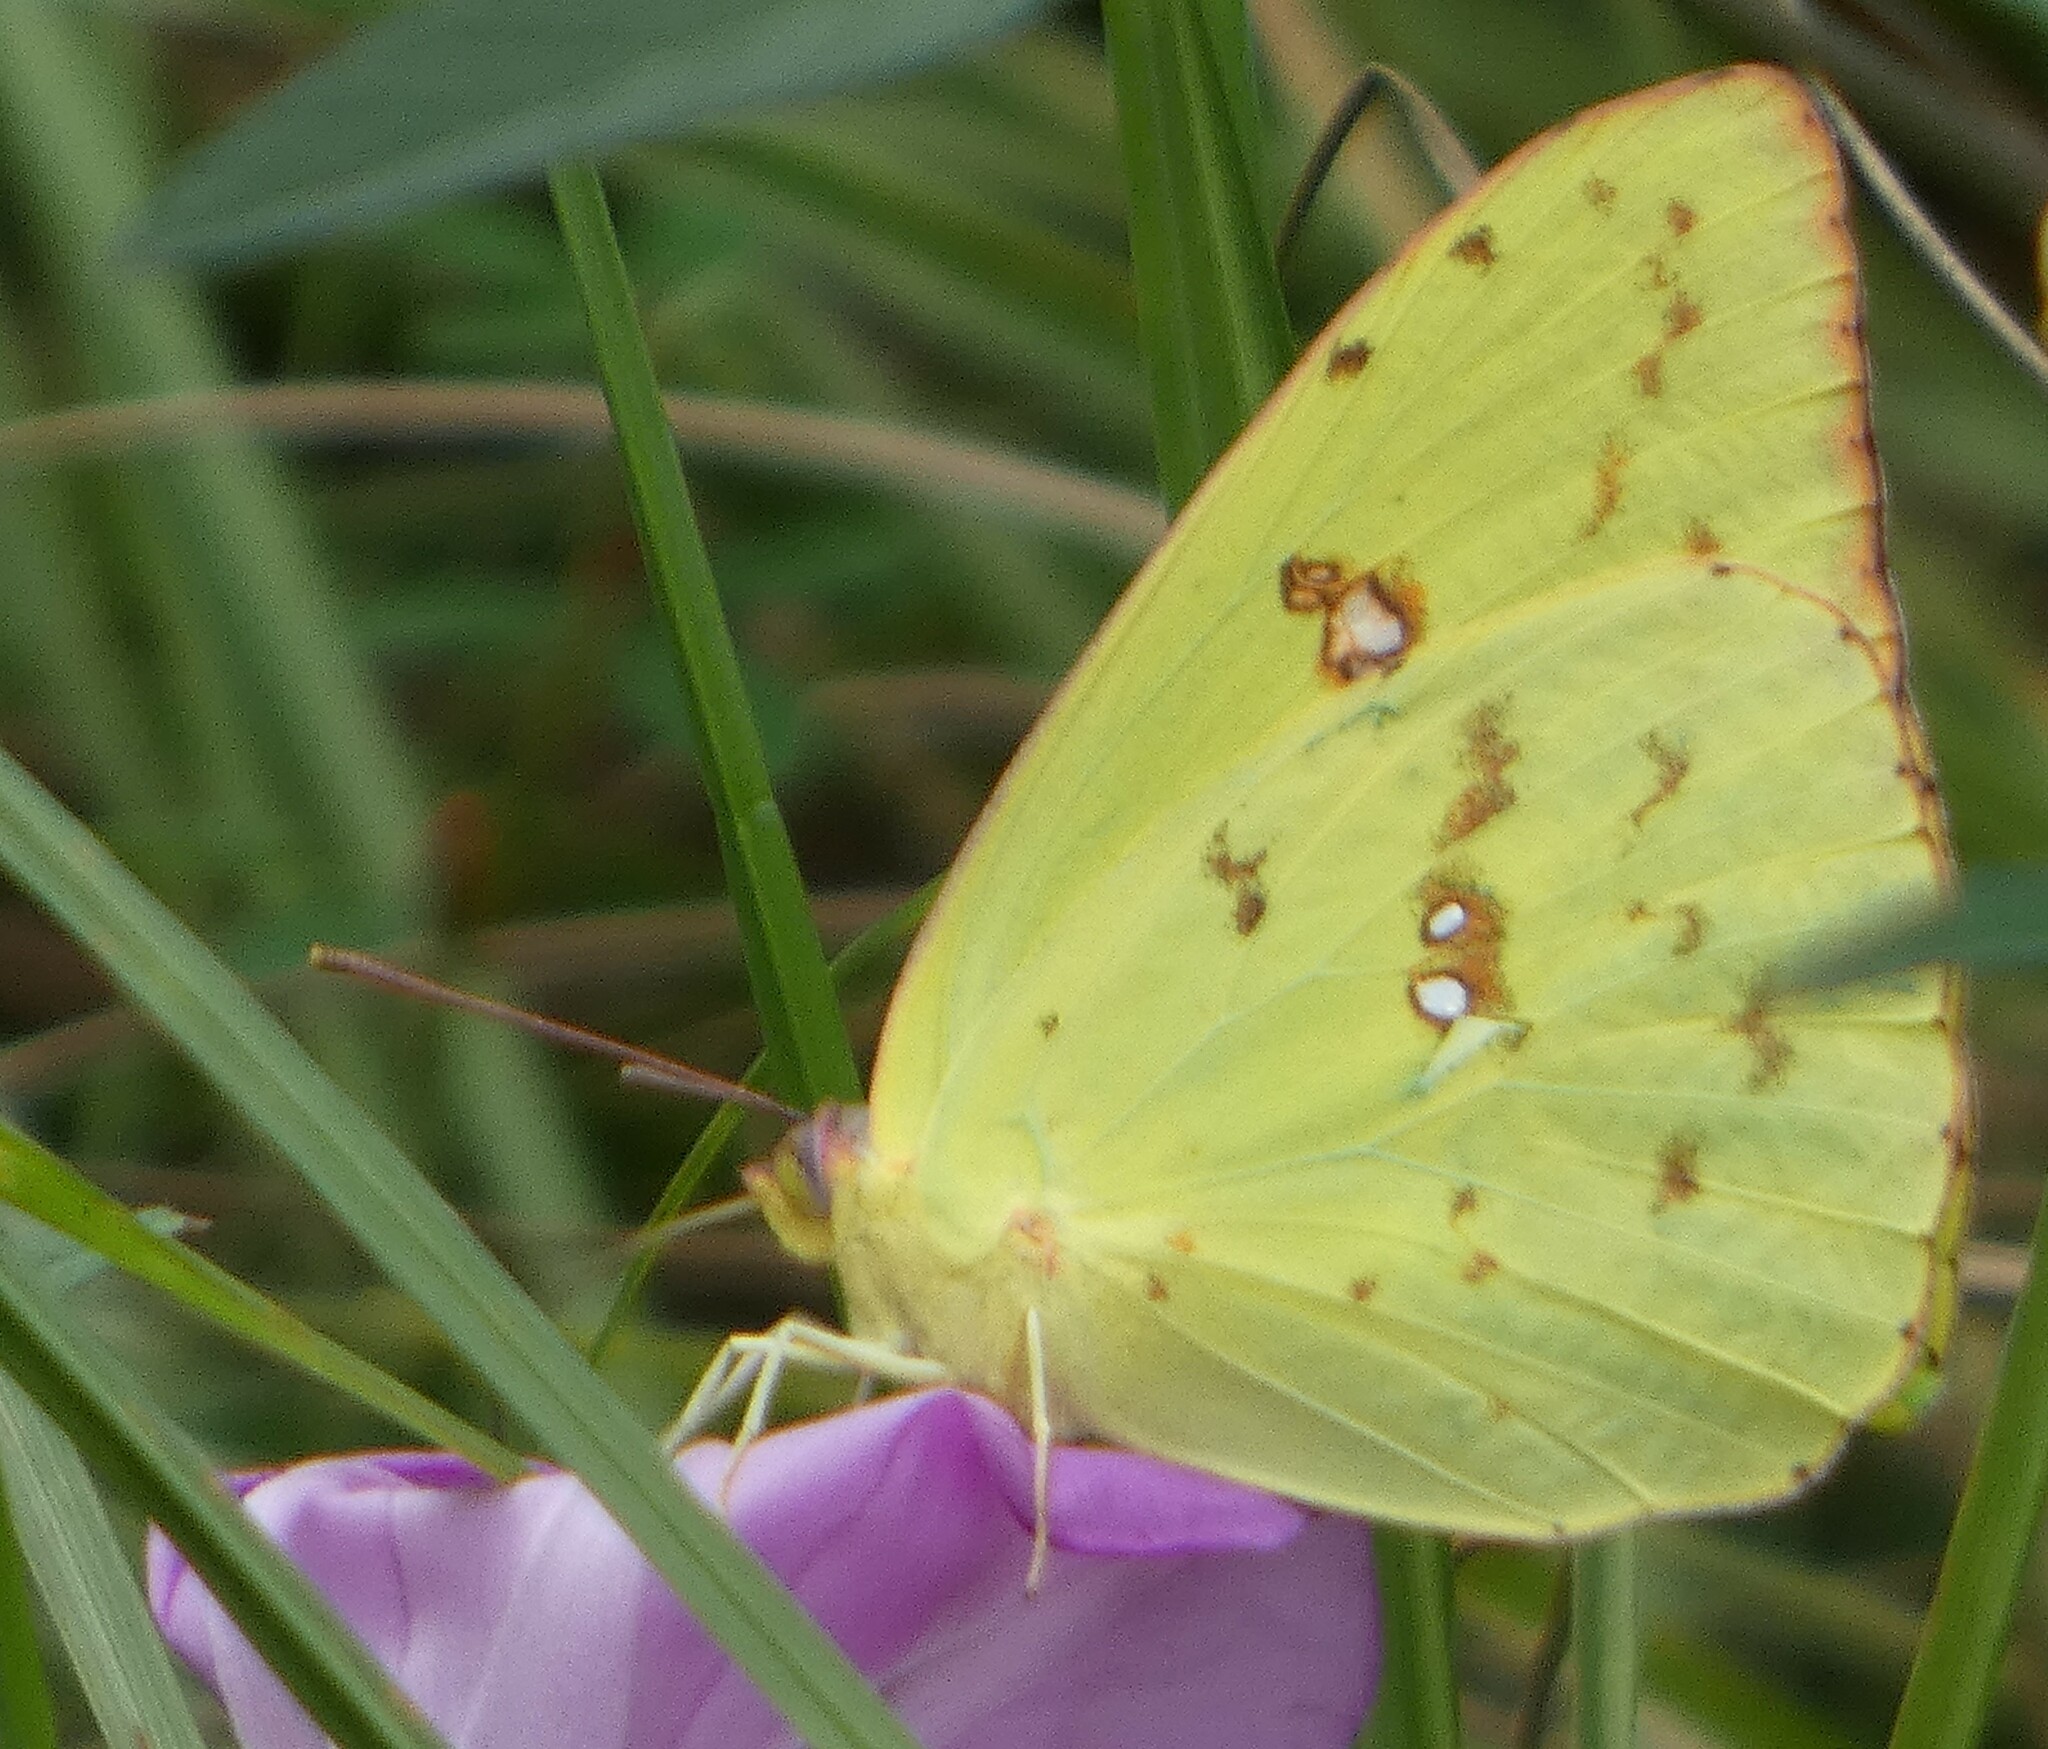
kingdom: Animalia
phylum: Arthropoda
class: Insecta
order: Lepidoptera
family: Pieridae
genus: Phoebis
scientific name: Phoebis sennae
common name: Cloudless sulphur
